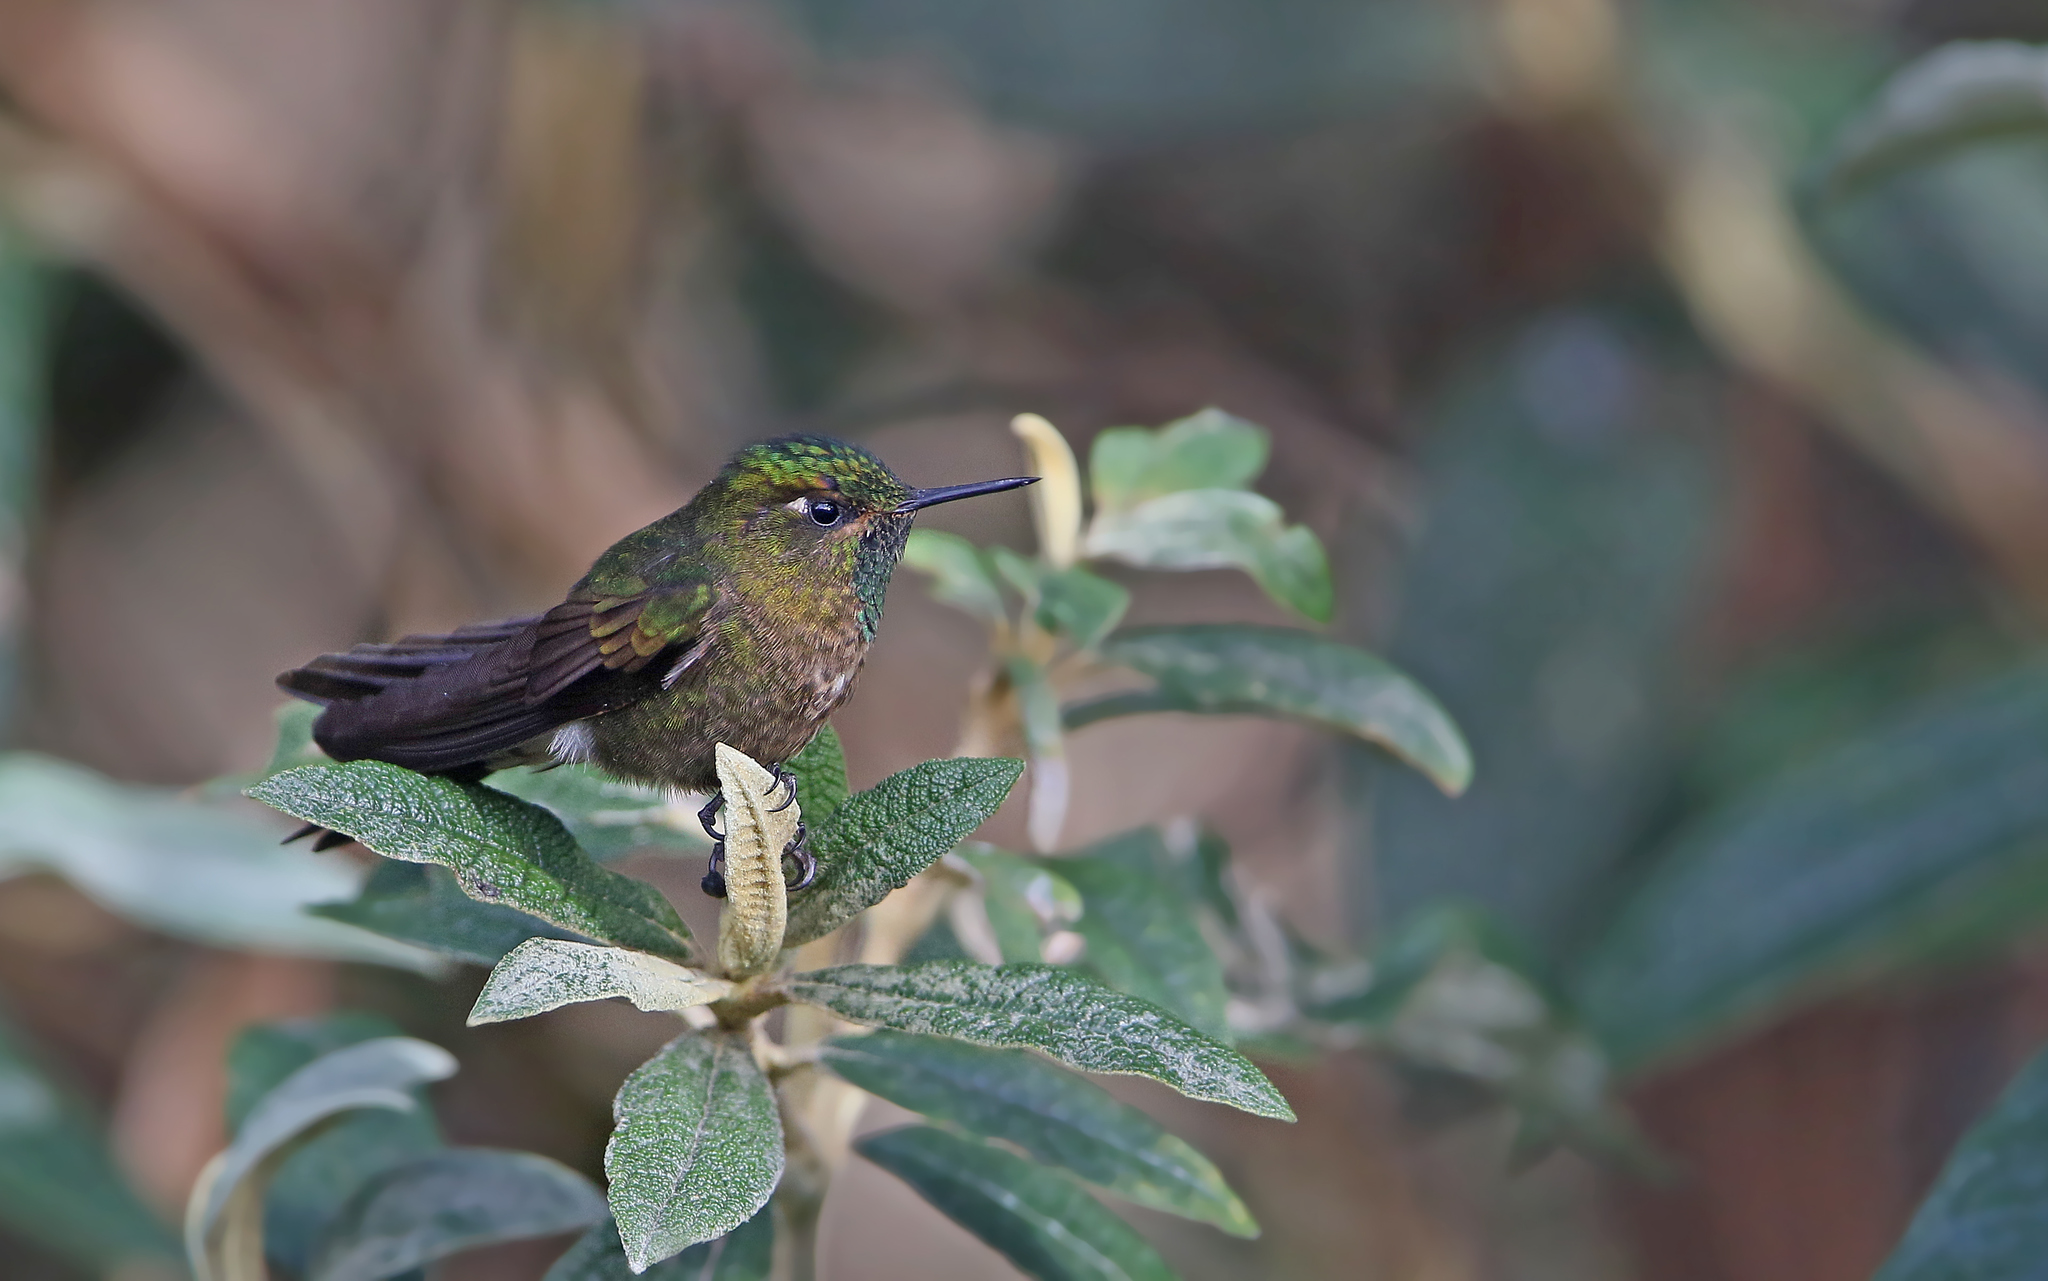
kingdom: Animalia
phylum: Chordata
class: Aves
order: Apodiformes
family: Trochilidae
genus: Metallura
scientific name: Metallura tyrianthina
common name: Tyrian metaltail
